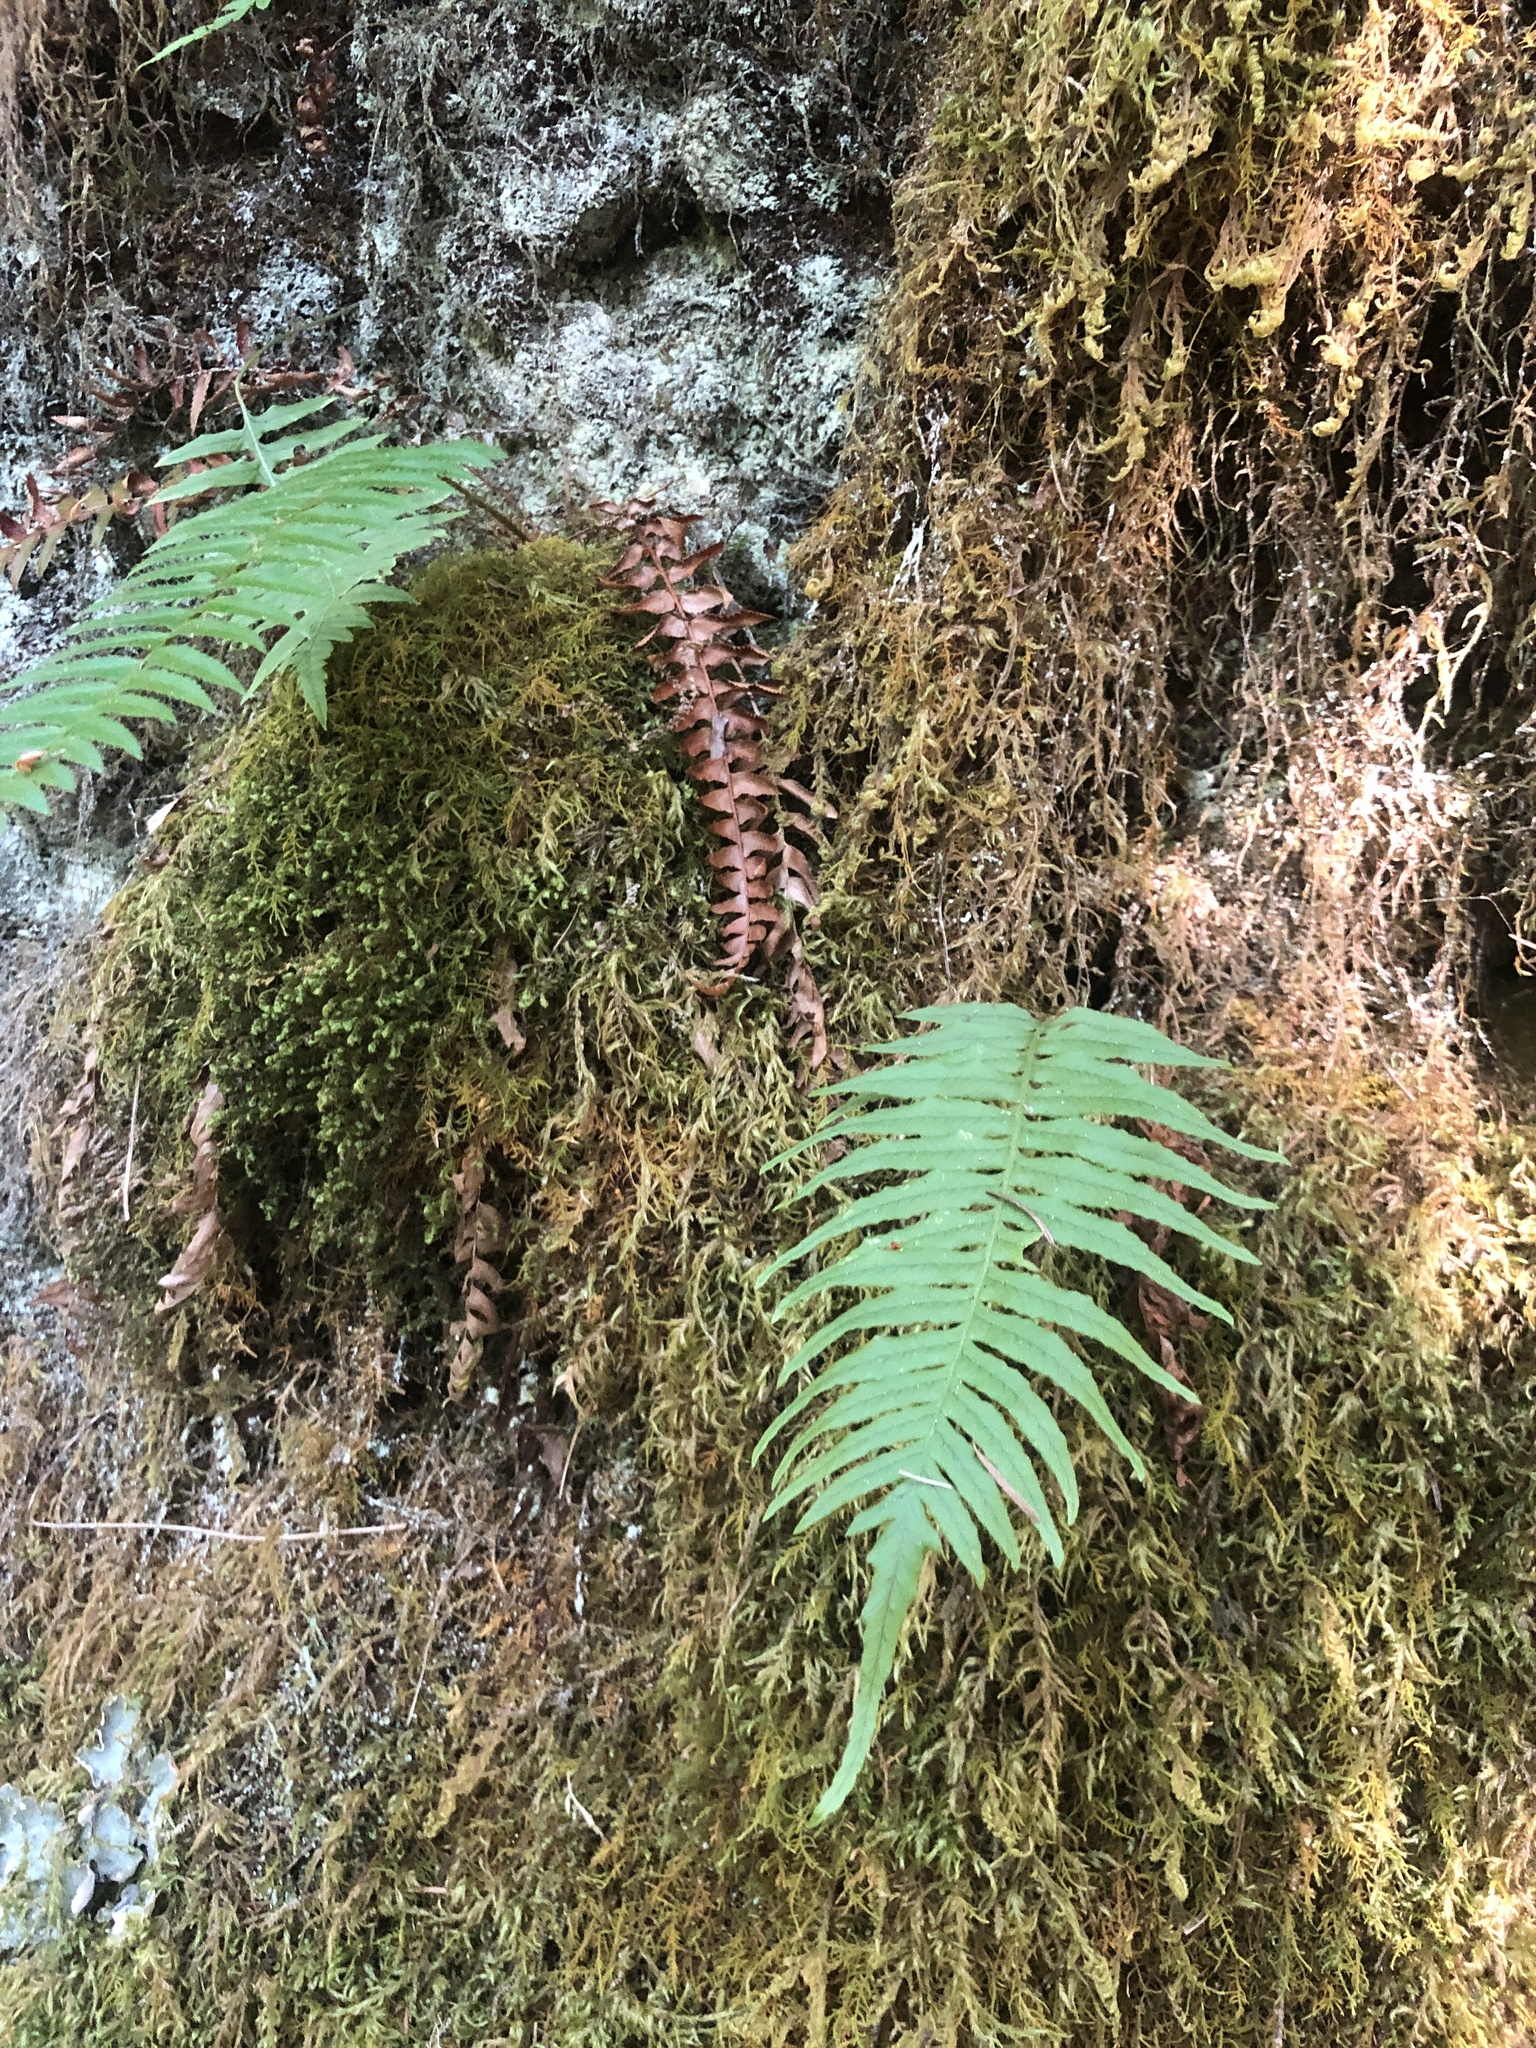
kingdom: Plantae
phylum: Tracheophyta
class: Polypodiopsida
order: Polypodiales
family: Polypodiaceae
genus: Polypodium
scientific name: Polypodium glycyrrhiza
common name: Licorice fern
